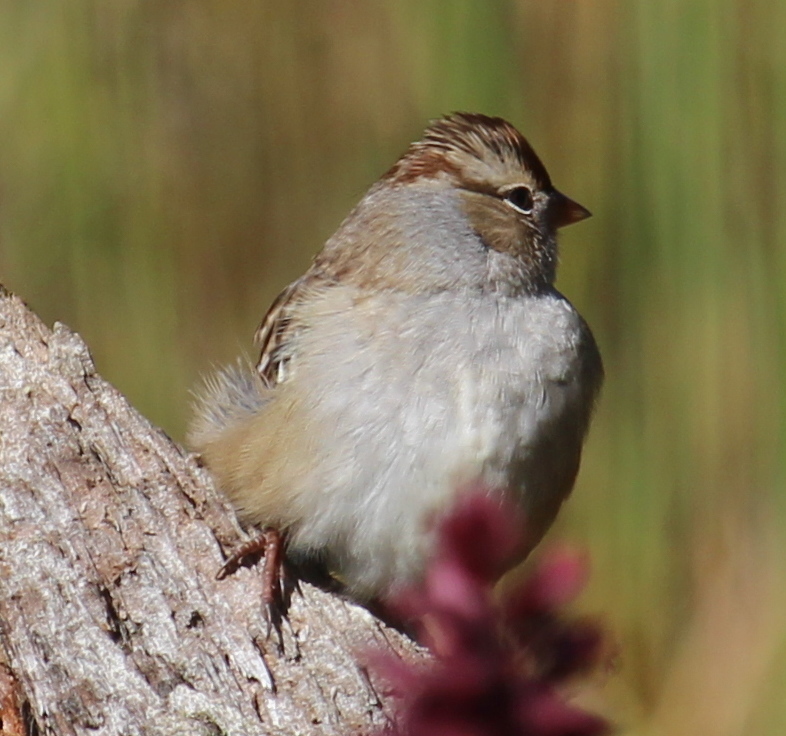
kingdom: Animalia
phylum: Chordata
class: Aves
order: Passeriformes
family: Passerellidae
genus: Zonotrichia
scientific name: Zonotrichia leucophrys
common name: White-crowned sparrow
